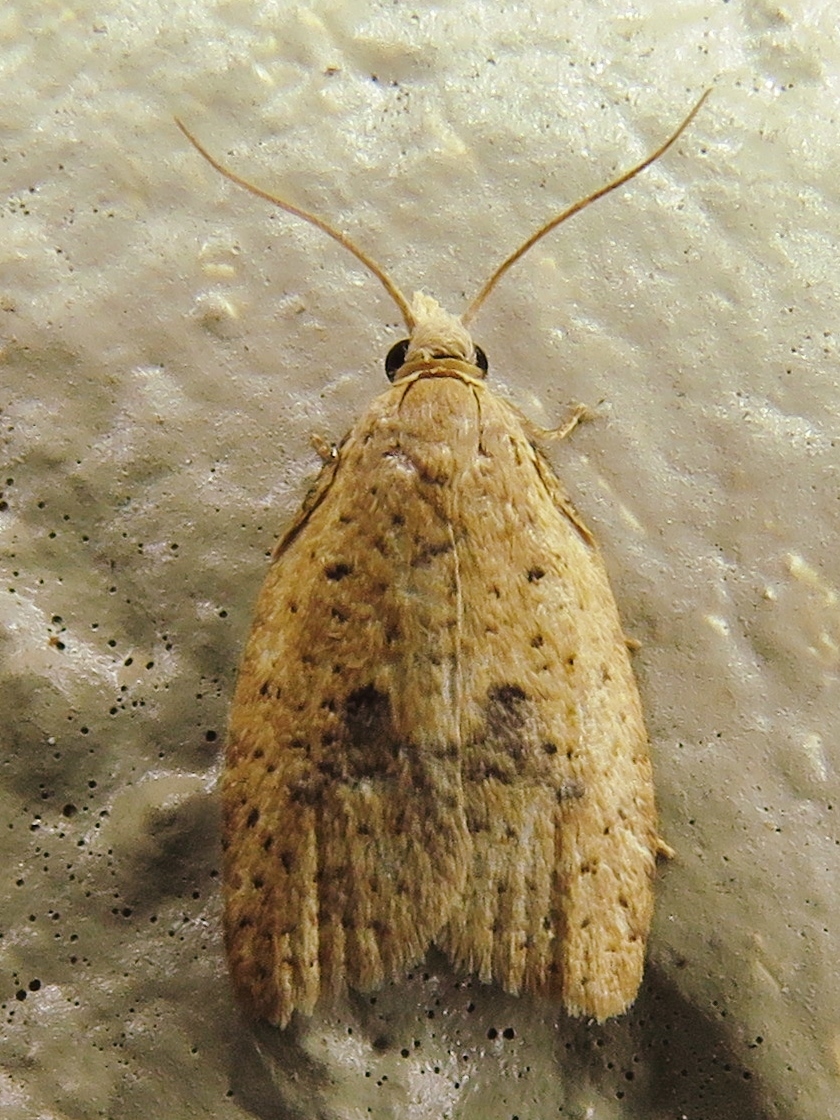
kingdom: Animalia
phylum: Arthropoda
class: Insecta
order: Lepidoptera
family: Tortricidae
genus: Sparganothoides
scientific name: Sparganothoides lentiginosana
